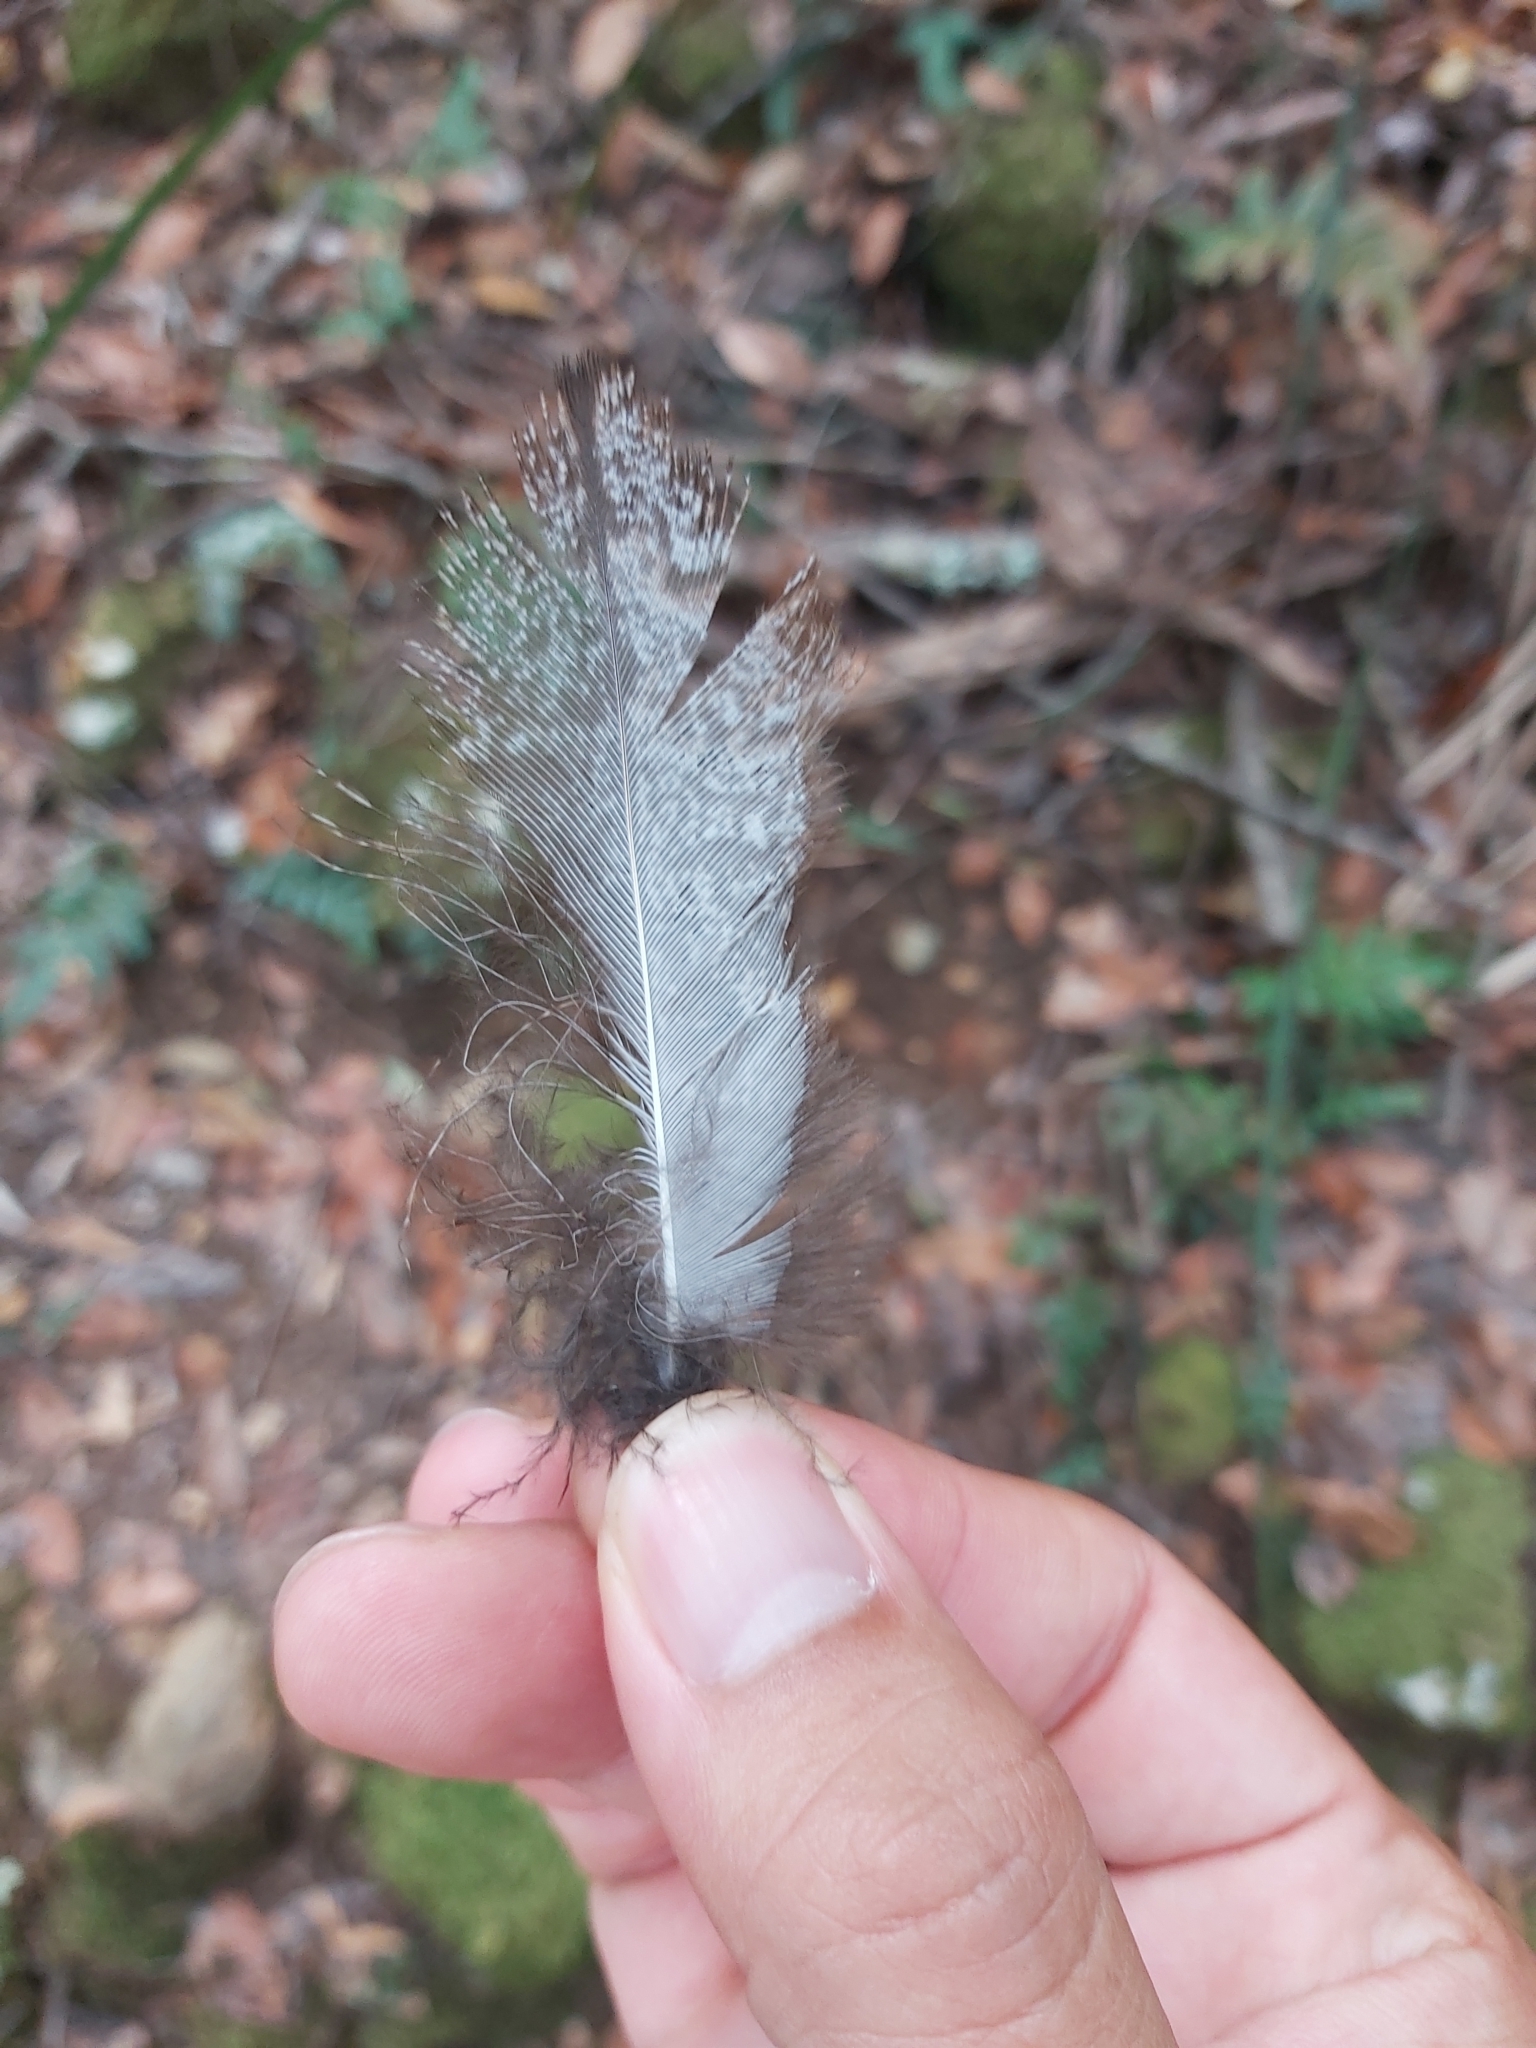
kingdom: Animalia
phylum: Chordata
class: Aves
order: Caprimulgiformes
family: Podargidae
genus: Podargus
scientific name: Podargus strigoides
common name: Tawny frogmouth
